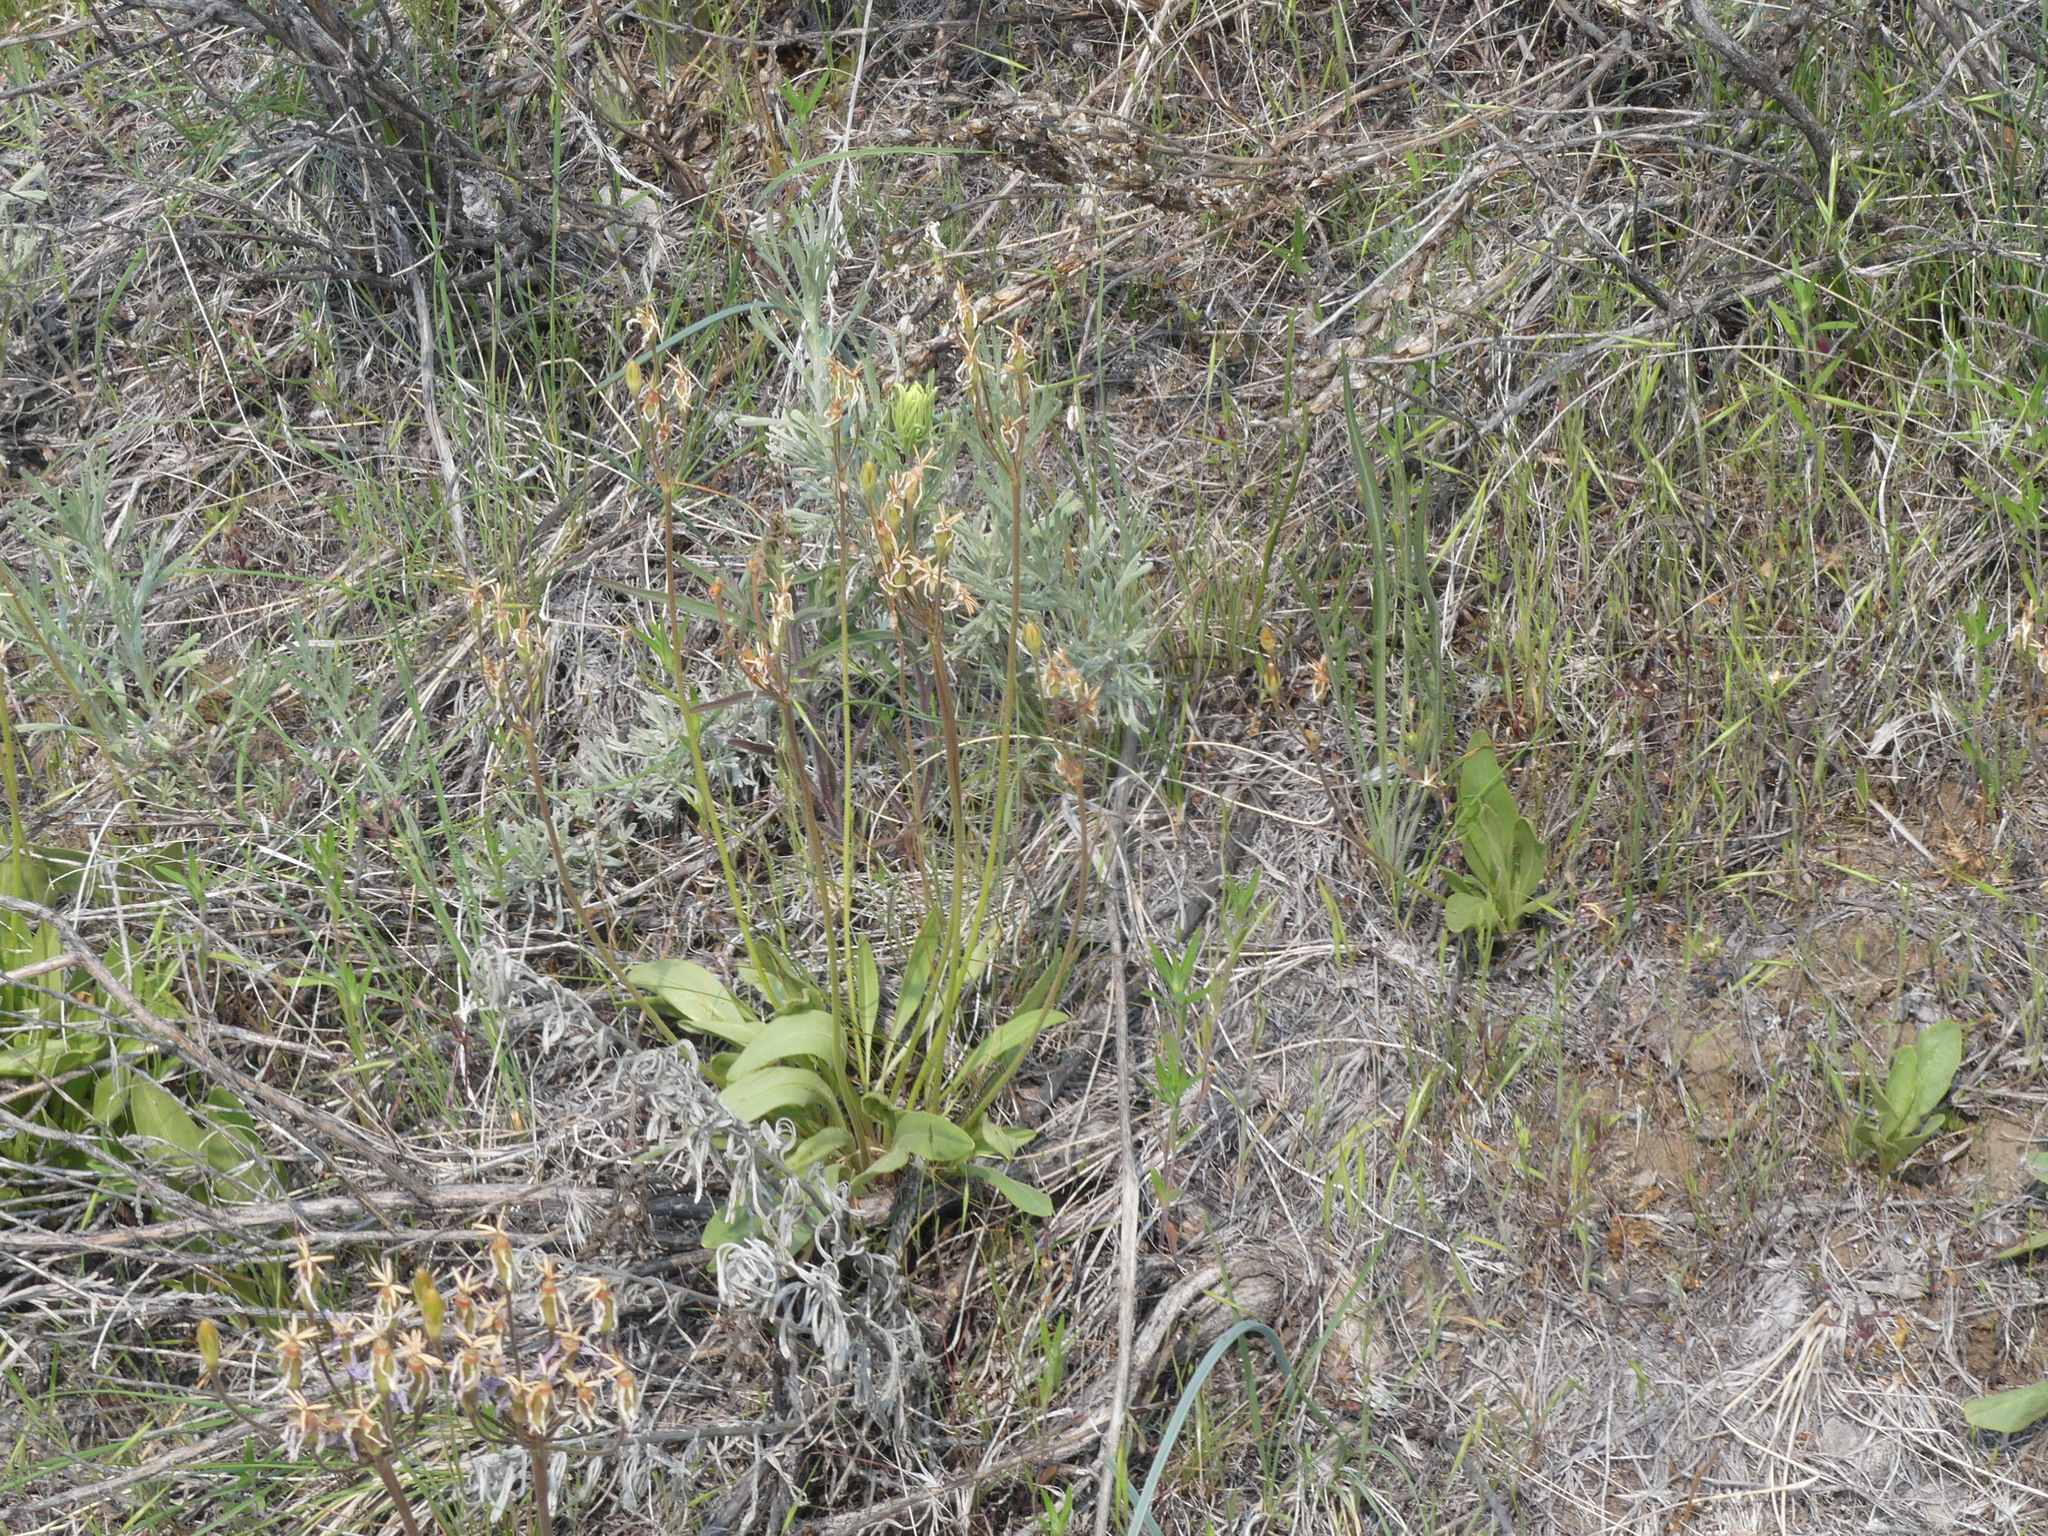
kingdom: Plantae
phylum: Tracheophyta
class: Magnoliopsida
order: Ericales
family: Primulaceae
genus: Dodecatheon
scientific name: Dodecatheon pulchellum
